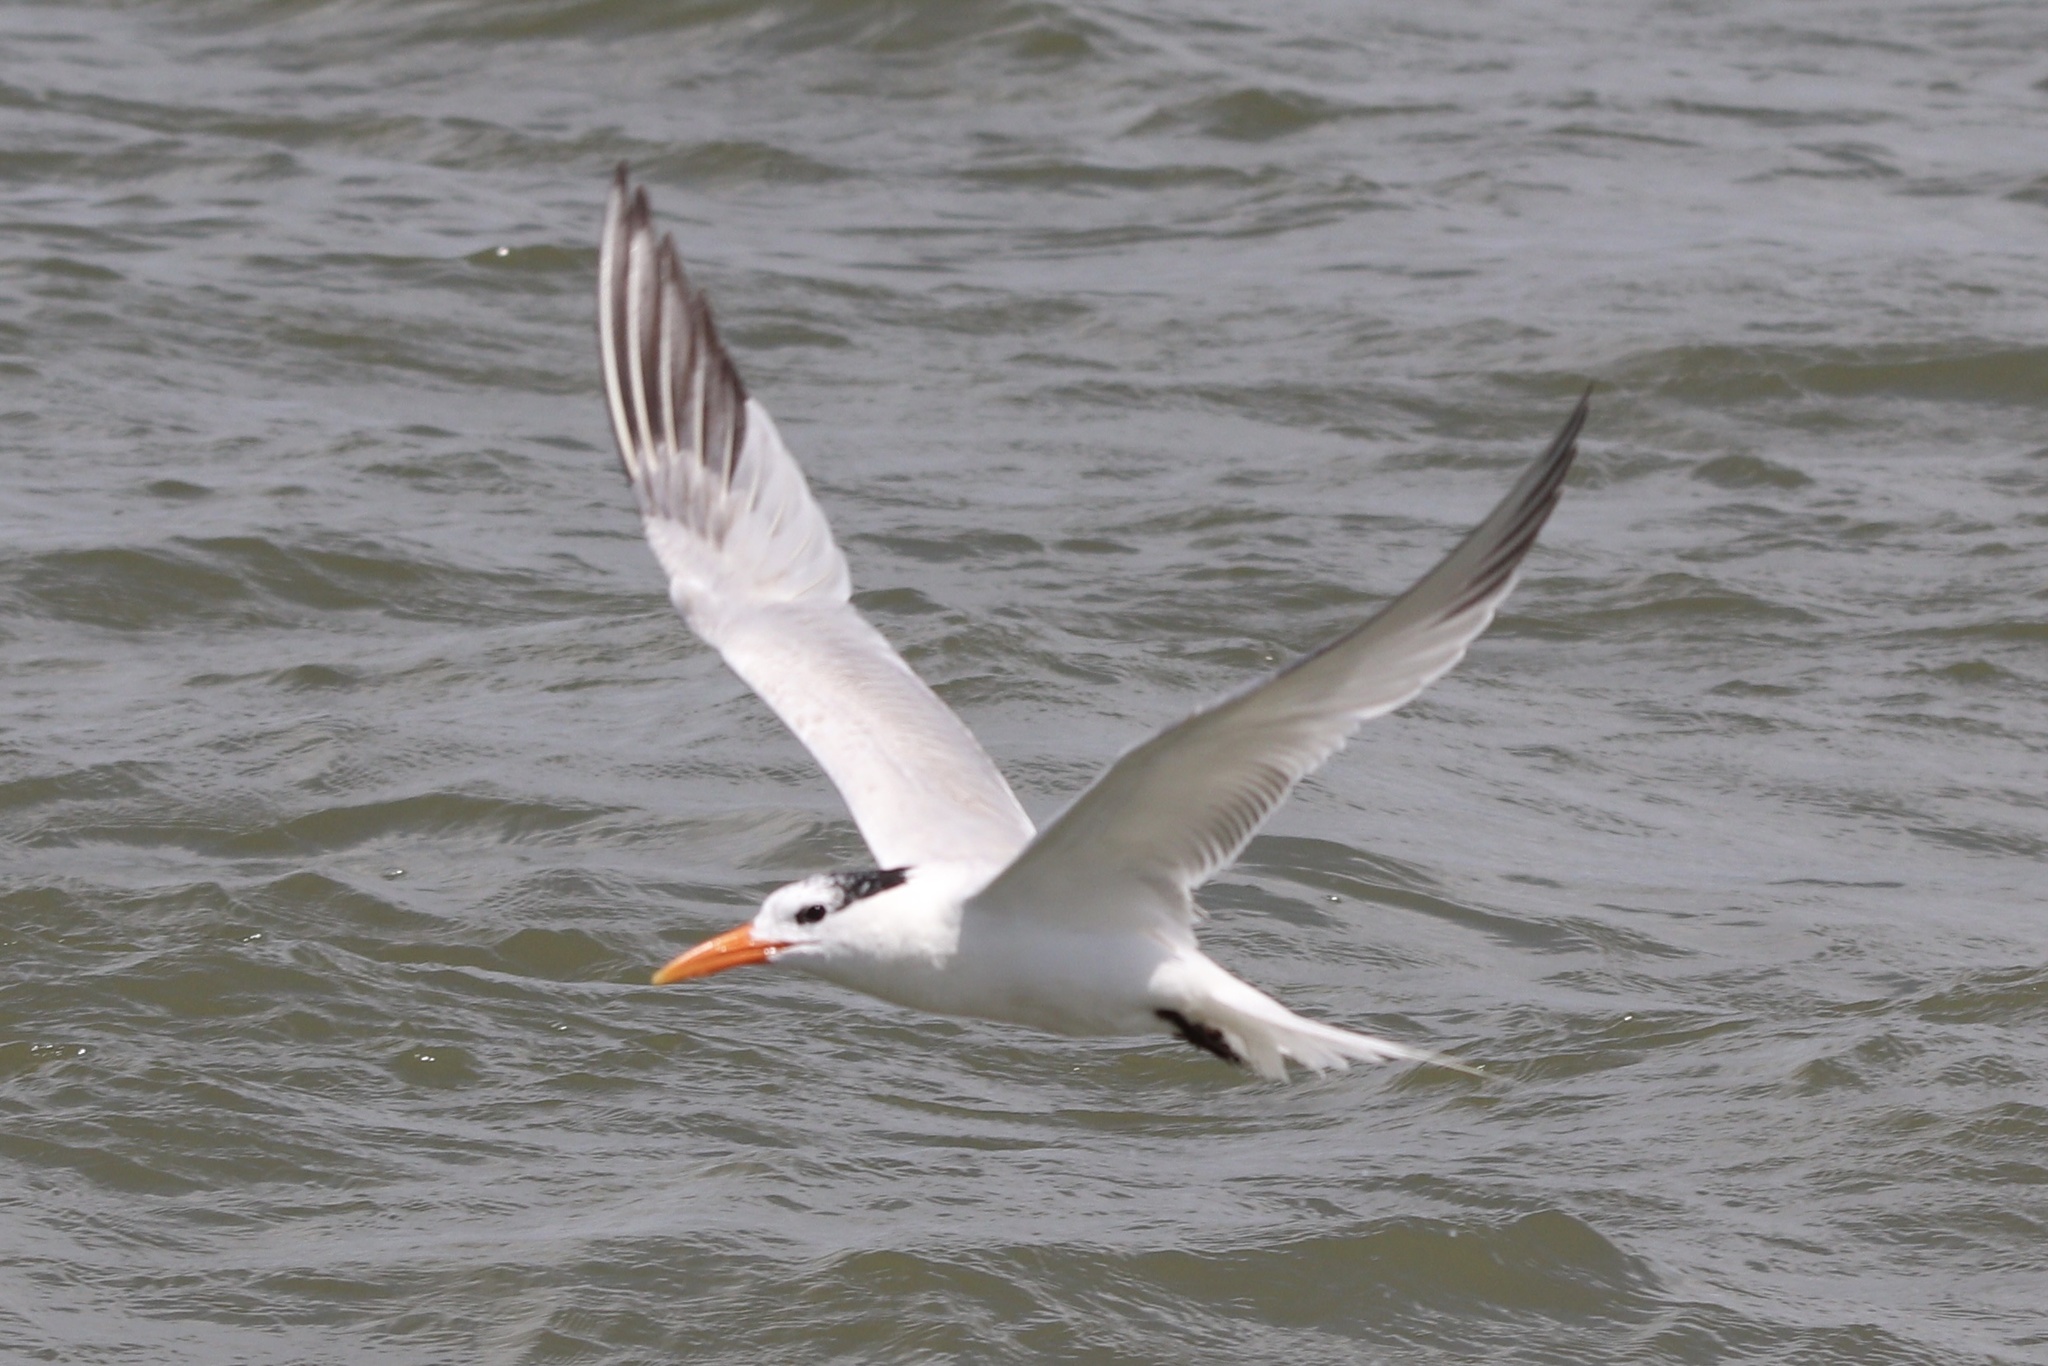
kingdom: Animalia
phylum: Chordata
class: Aves
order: Charadriiformes
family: Laridae
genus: Thalasseus
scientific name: Thalasseus maximus
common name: Royal tern
